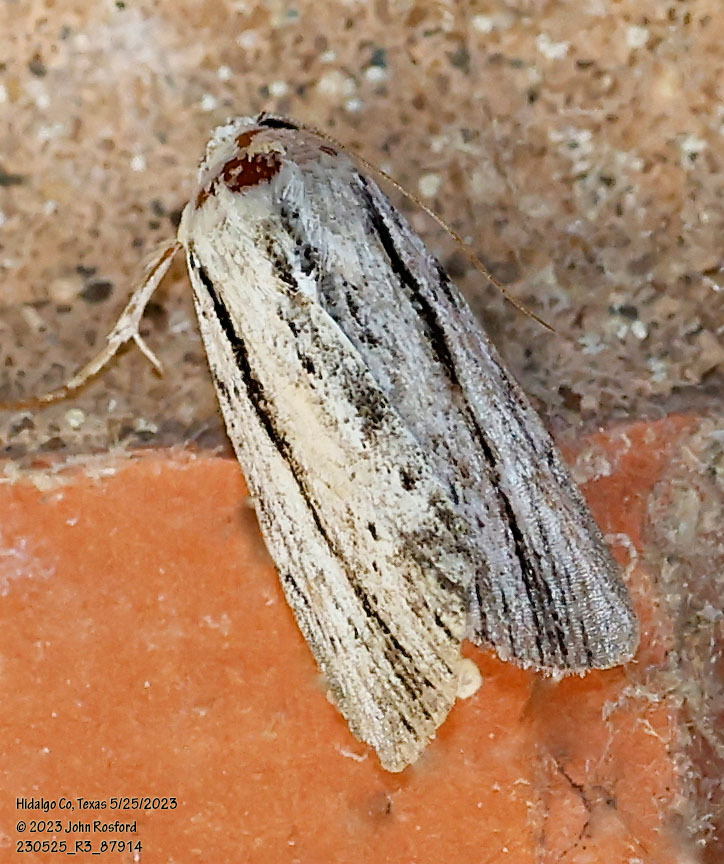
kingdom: Animalia
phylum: Arthropoda
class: Insecta
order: Lepidoptera
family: Noctuidae
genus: Catabenoides
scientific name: Catabenoides terminellus
